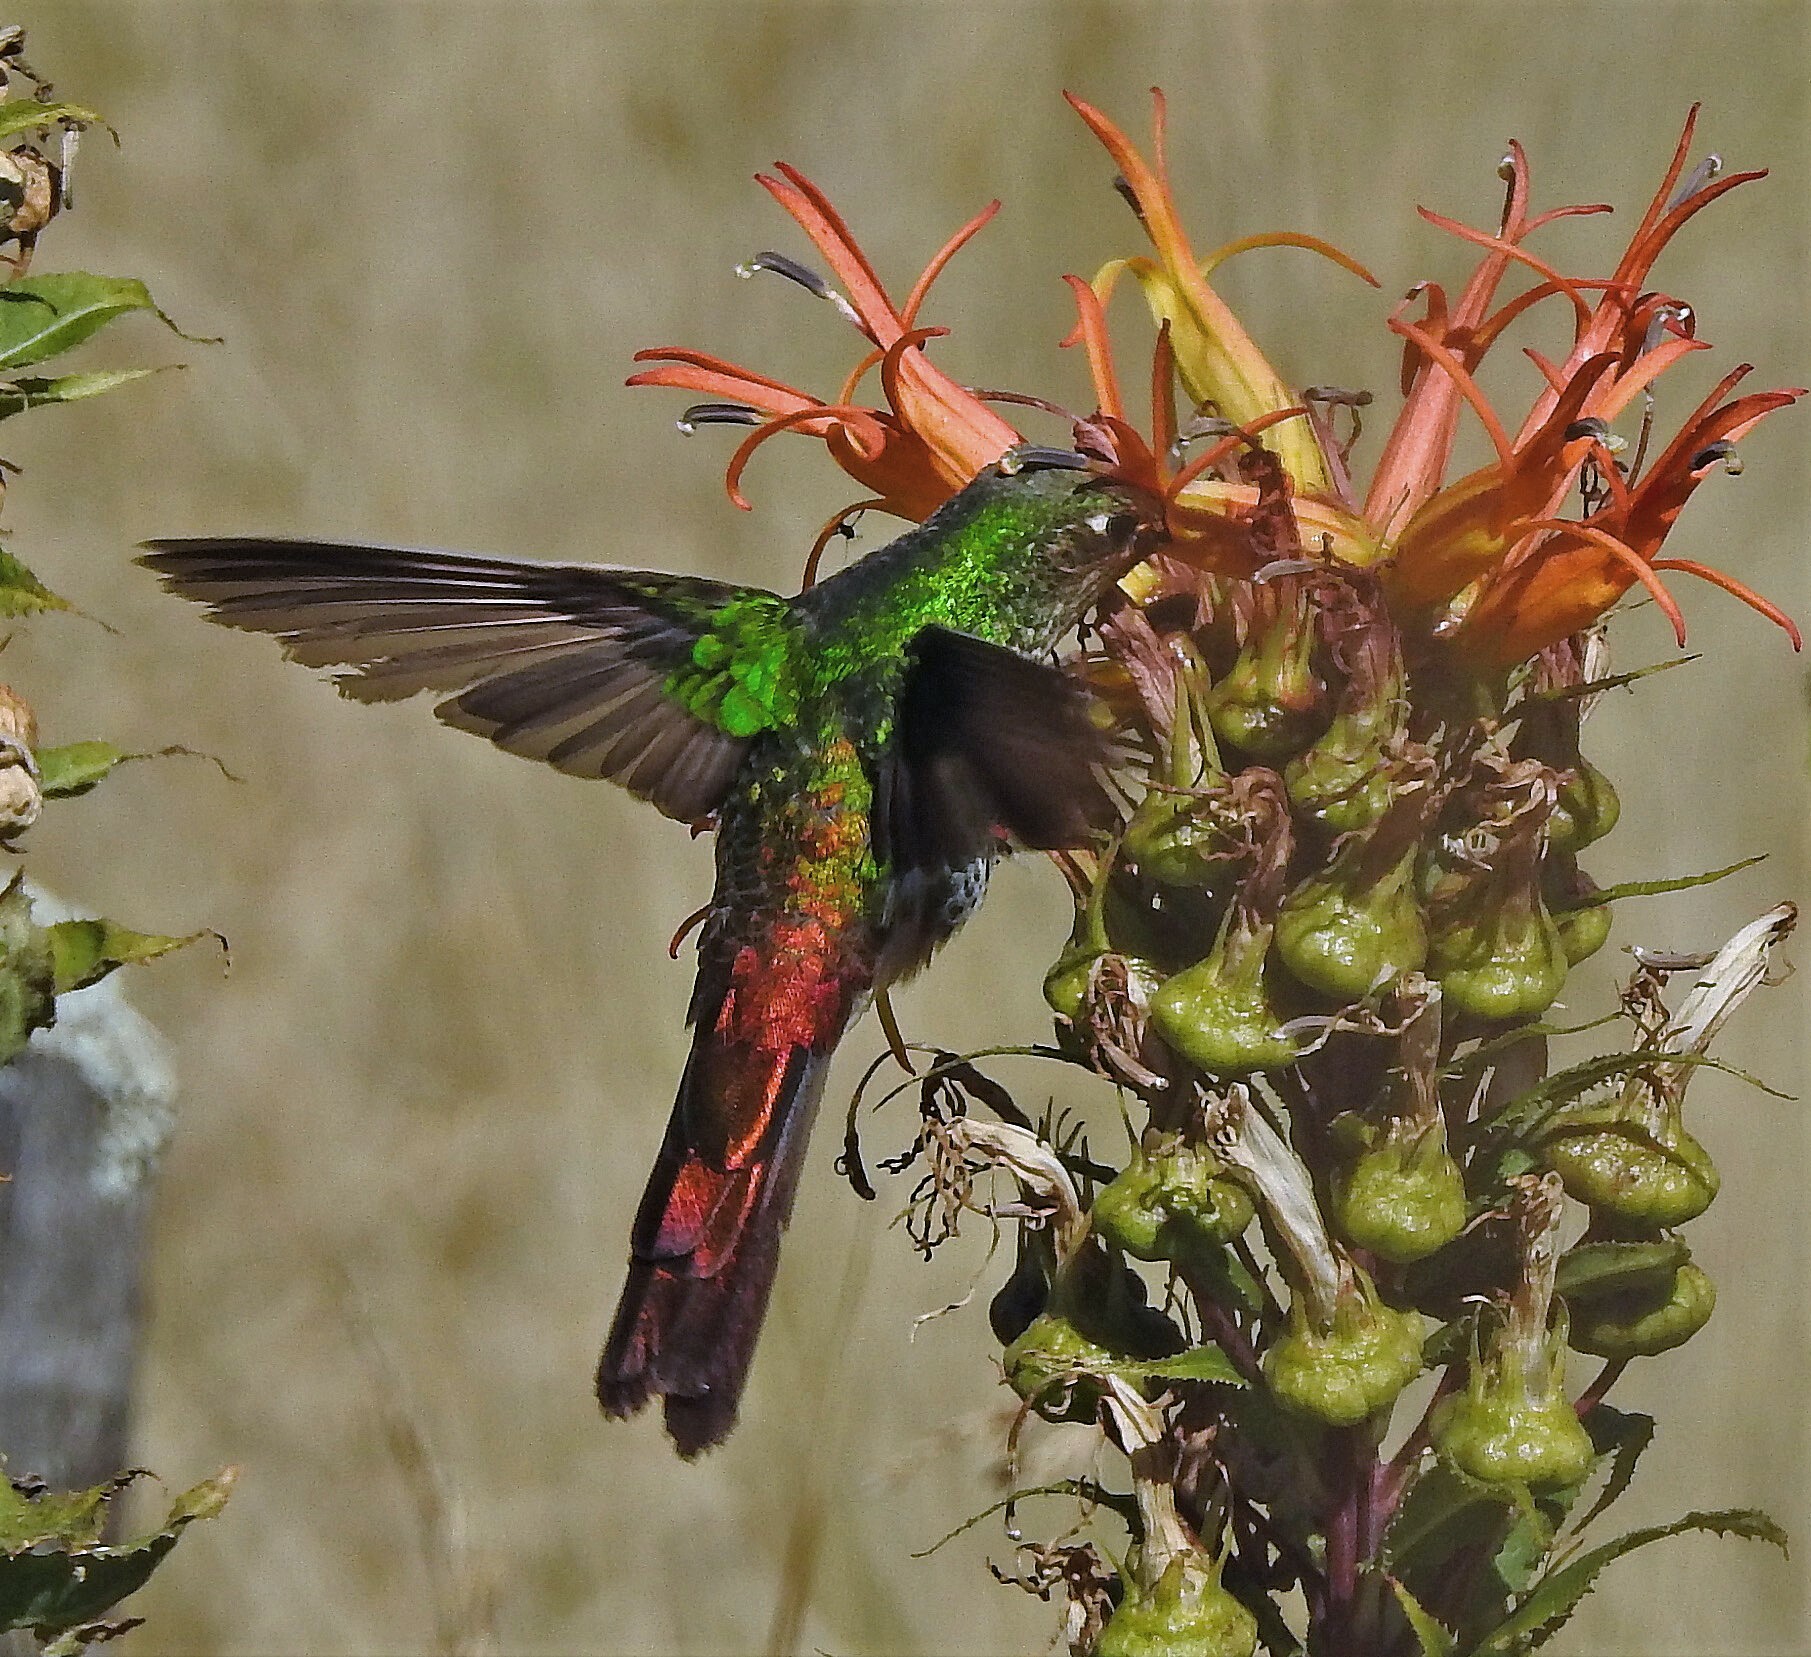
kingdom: Animalia
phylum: Chordata
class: Aves
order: Apodiformes
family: Trochilidae
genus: Sappho
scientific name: Sappho sparganurus
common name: Red-tailed comet
